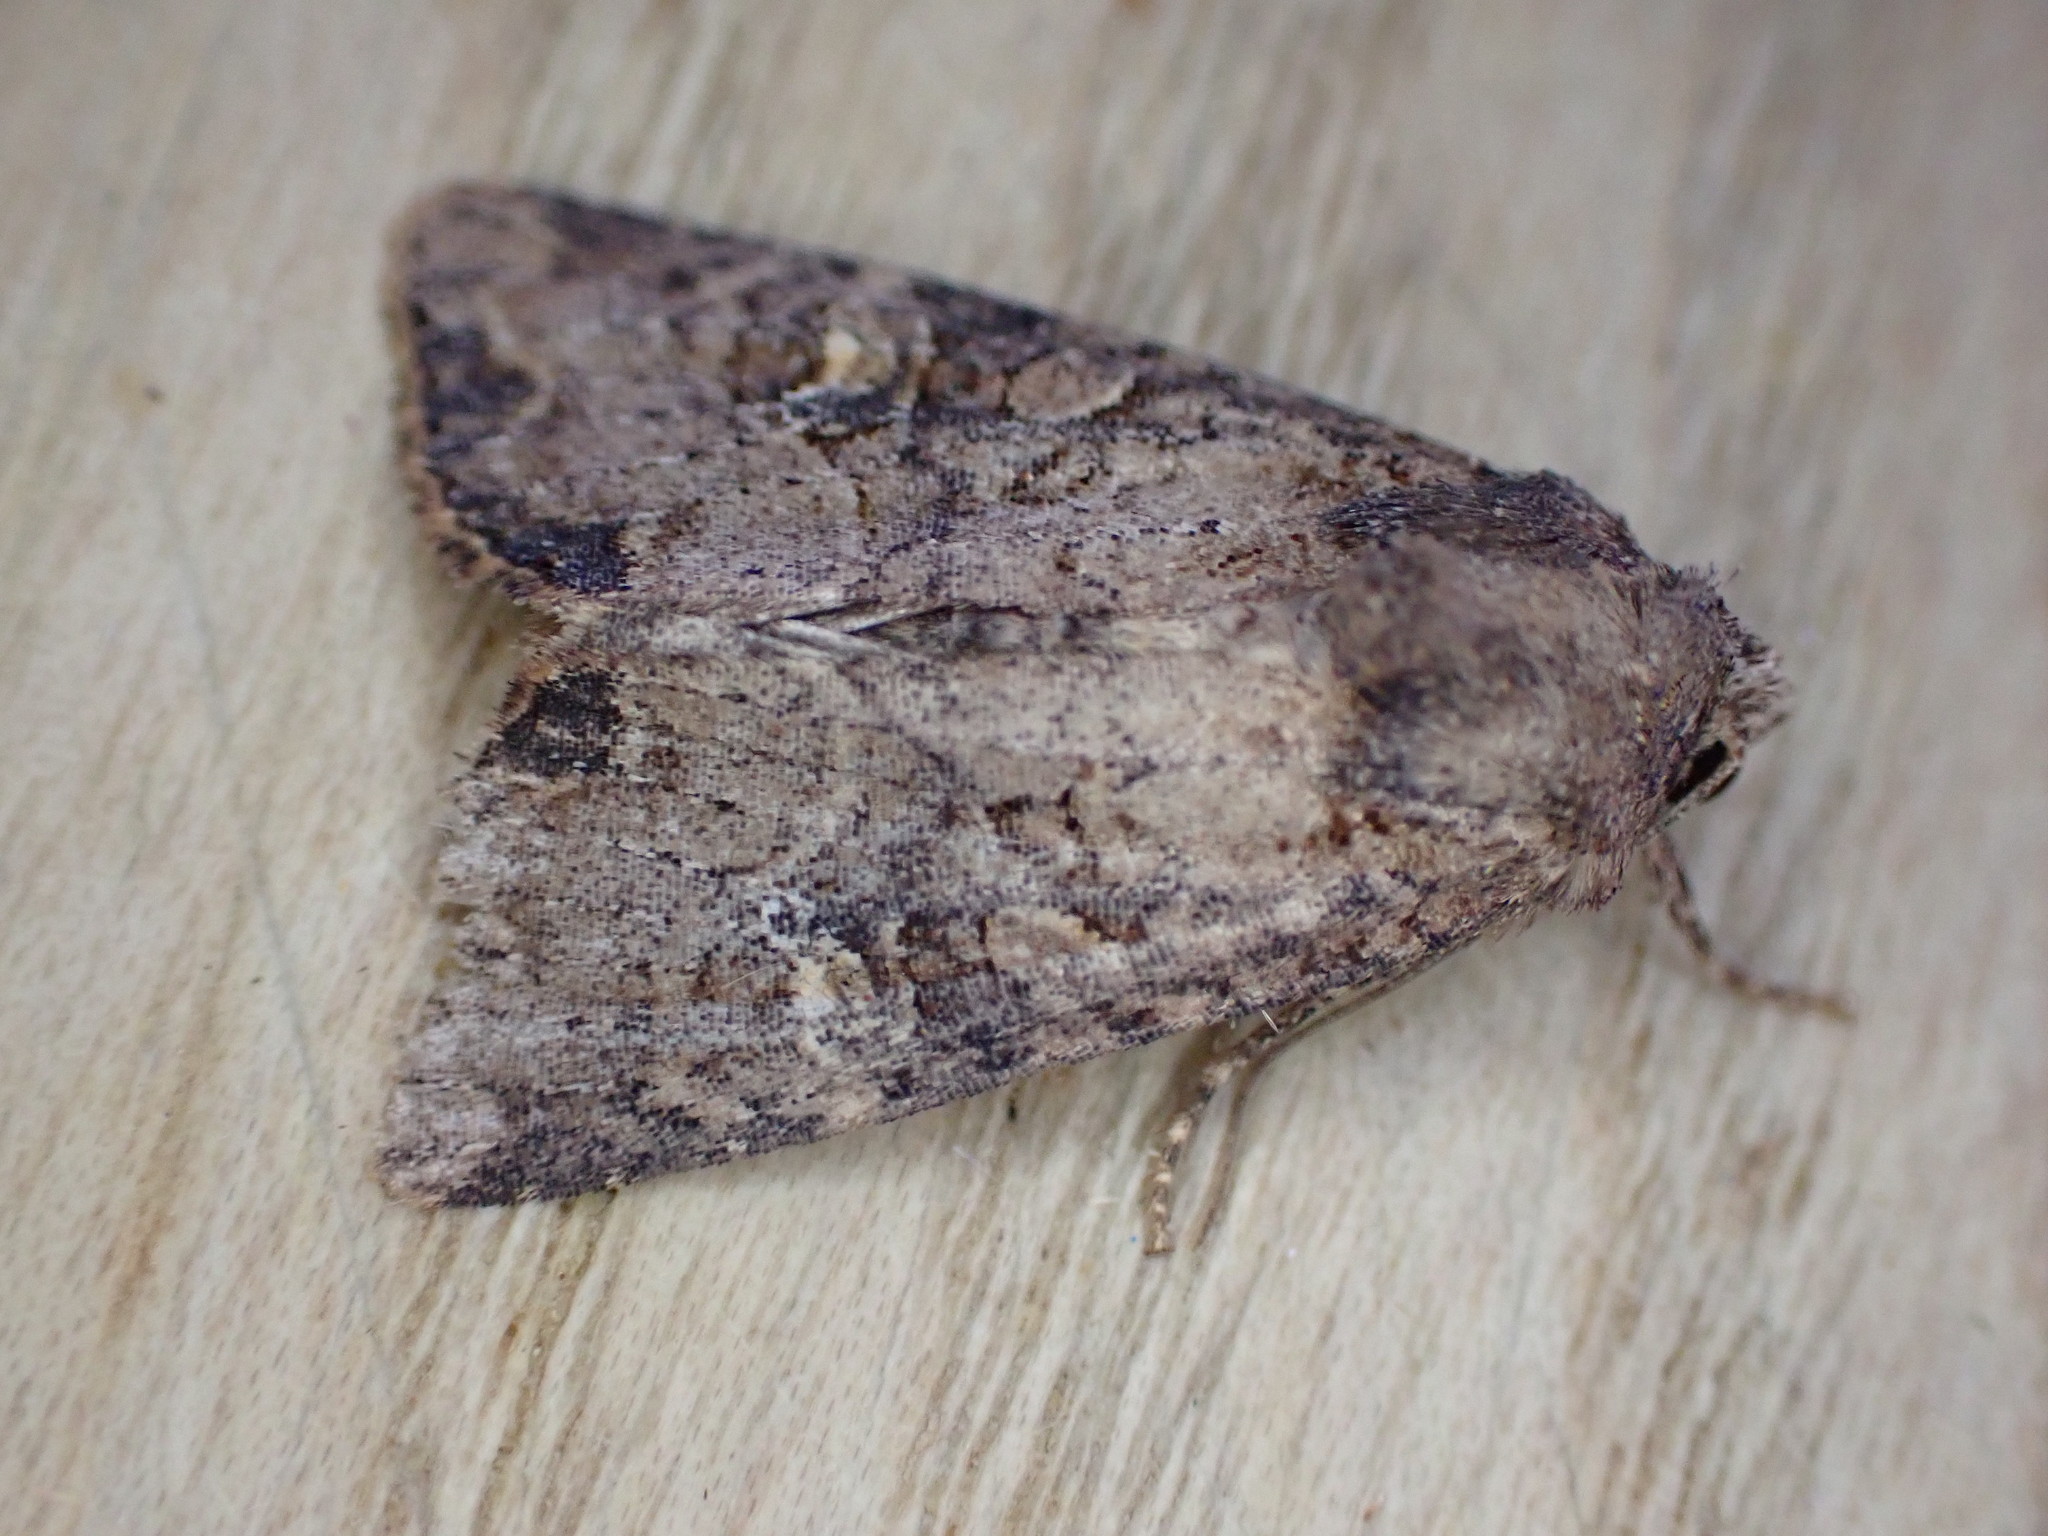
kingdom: Animalia
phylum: Arthropoda
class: Insecta
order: Lepidoptera
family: Noctuidae
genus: Mesapamea
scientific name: Mesapamea
